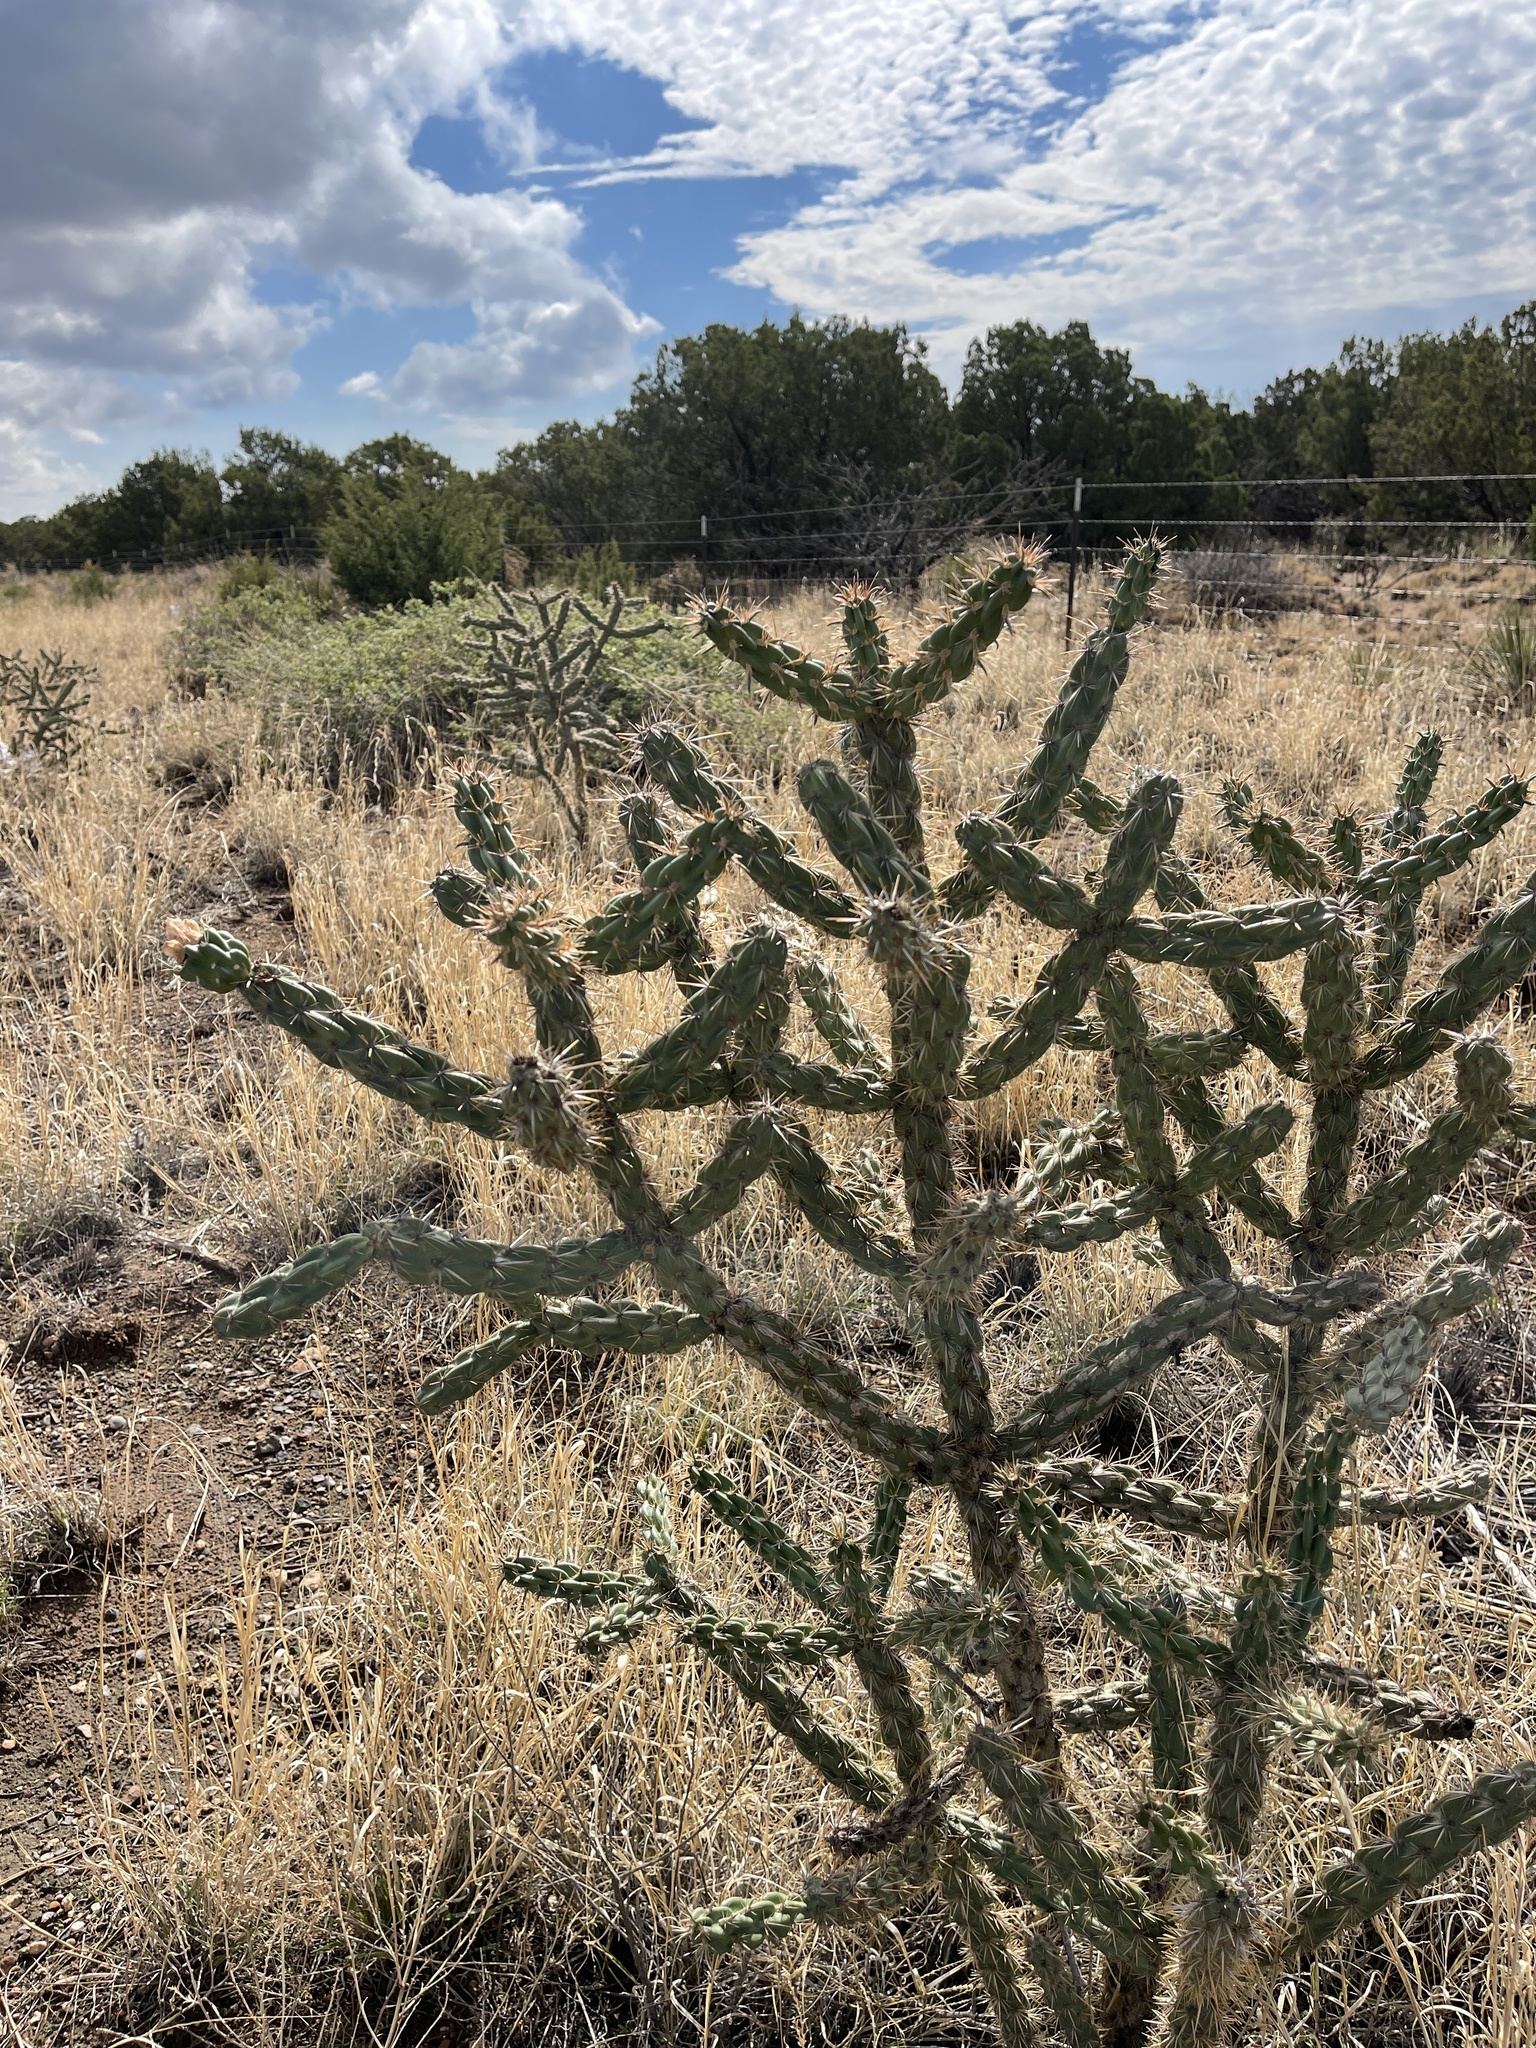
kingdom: Plantae
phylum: Tracheophyta
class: Magnoliopsida
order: Caryophyllales
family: Cactaceae
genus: Cylindropuntia
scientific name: Cylindropuntia imbricata
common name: Candelabrum cactus
